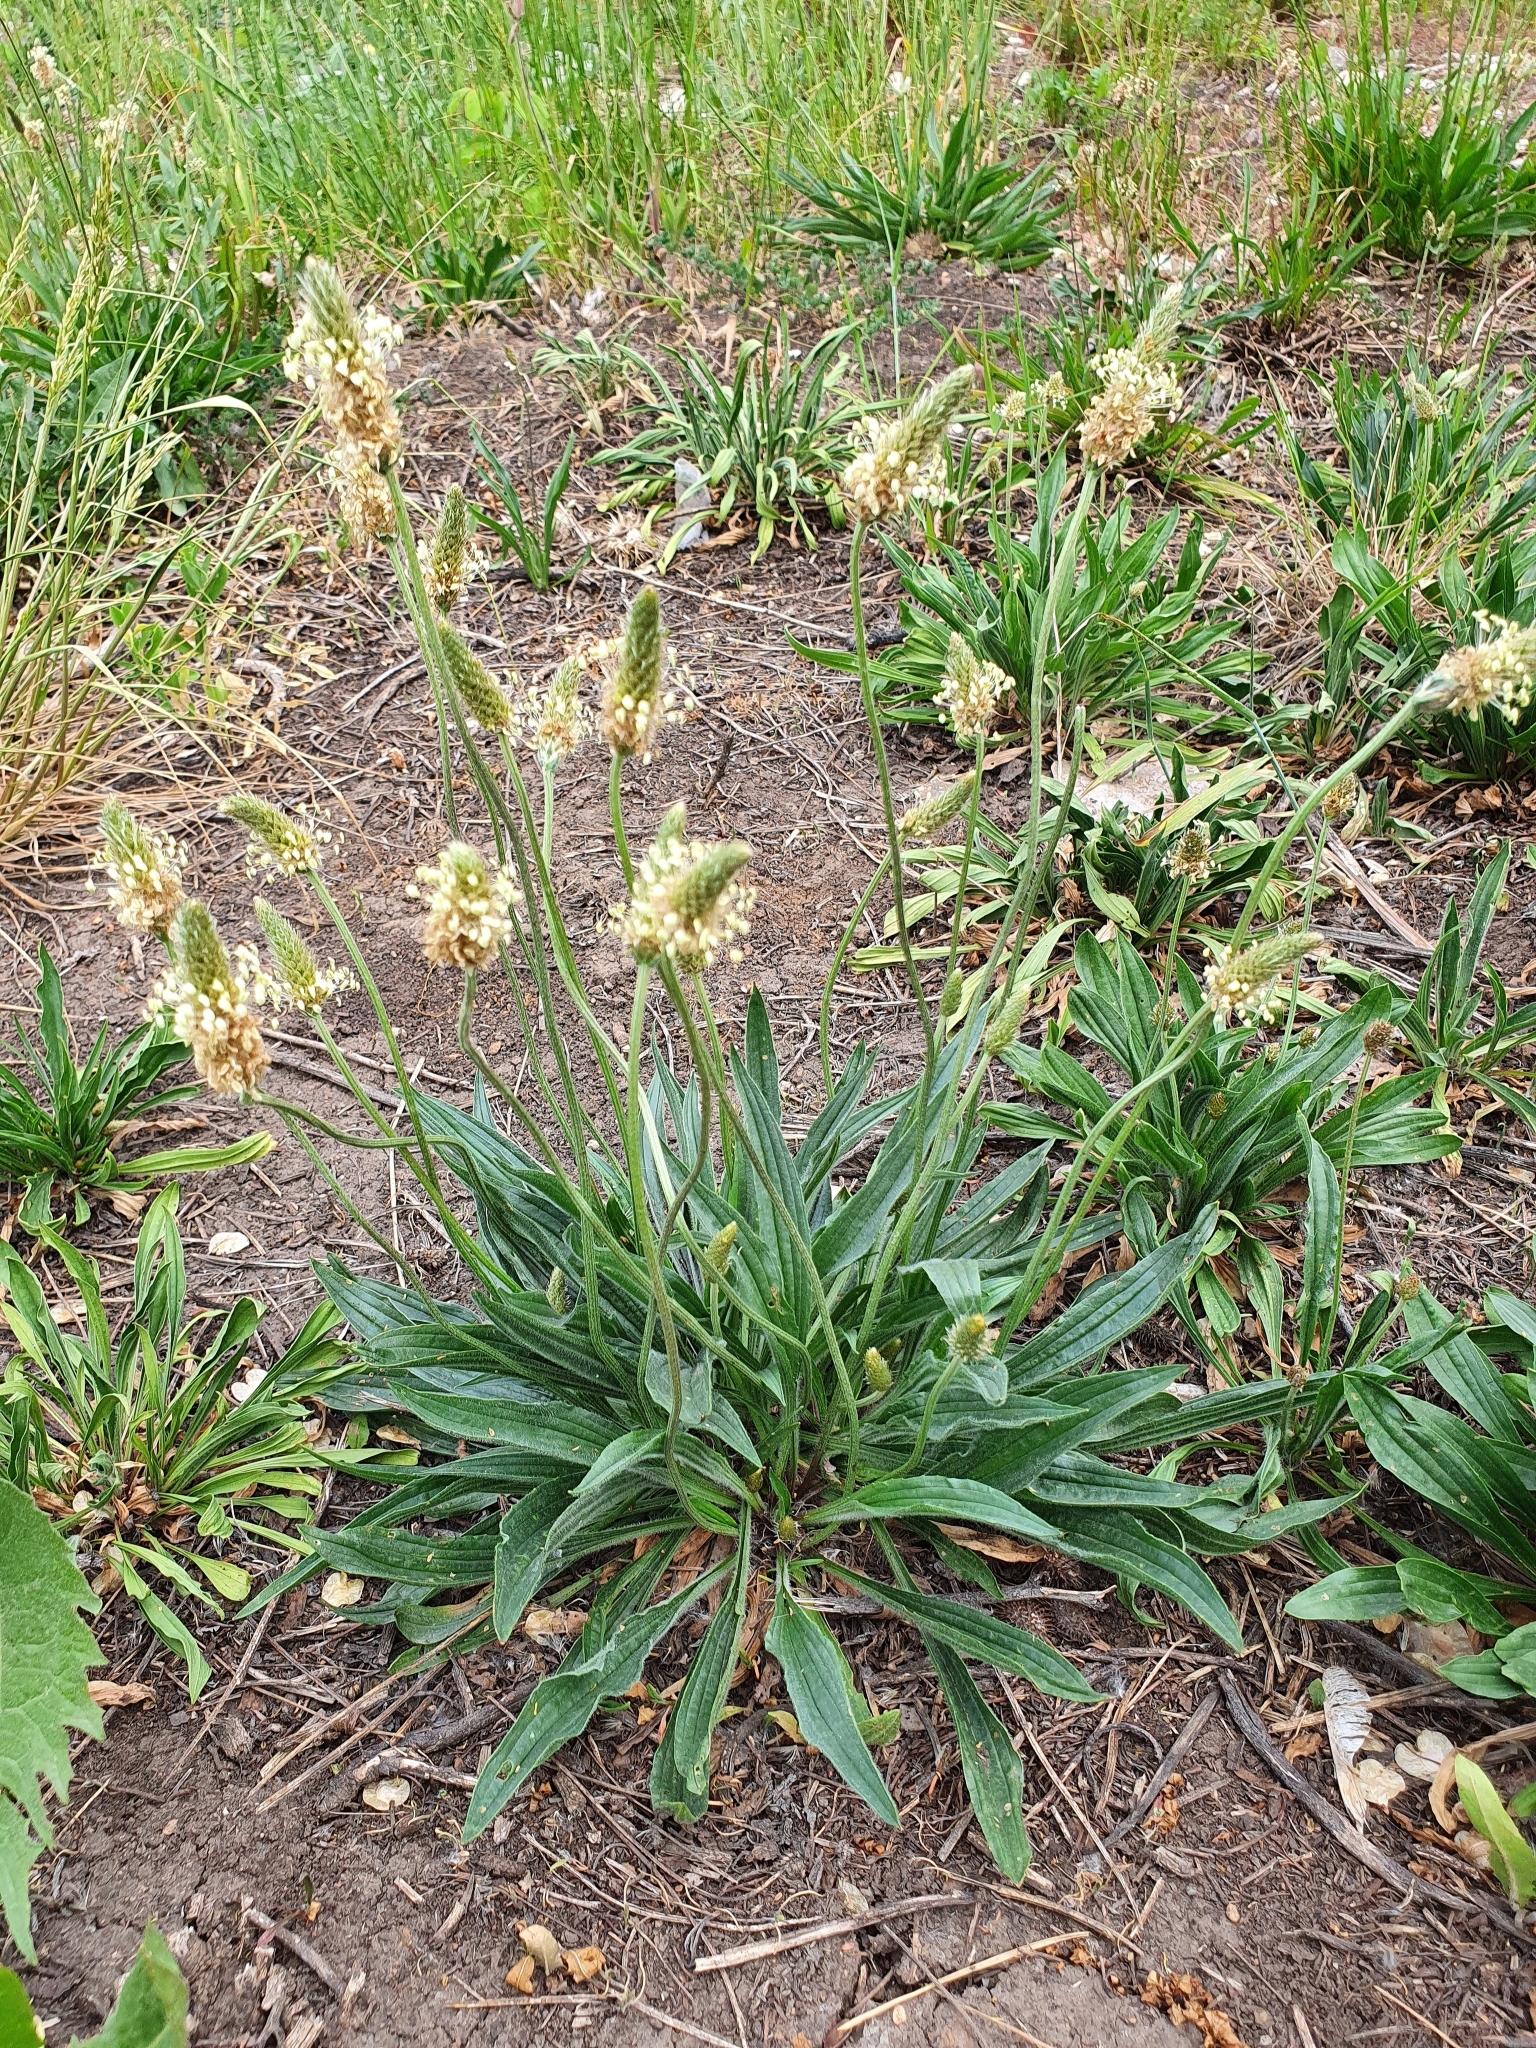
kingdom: Plantae
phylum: Tracheophyta
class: Magnoliopsida
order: Lamiales
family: Plantaginaceae
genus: Plantago
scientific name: Plantago lanceolata
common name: Ribwort plantain
